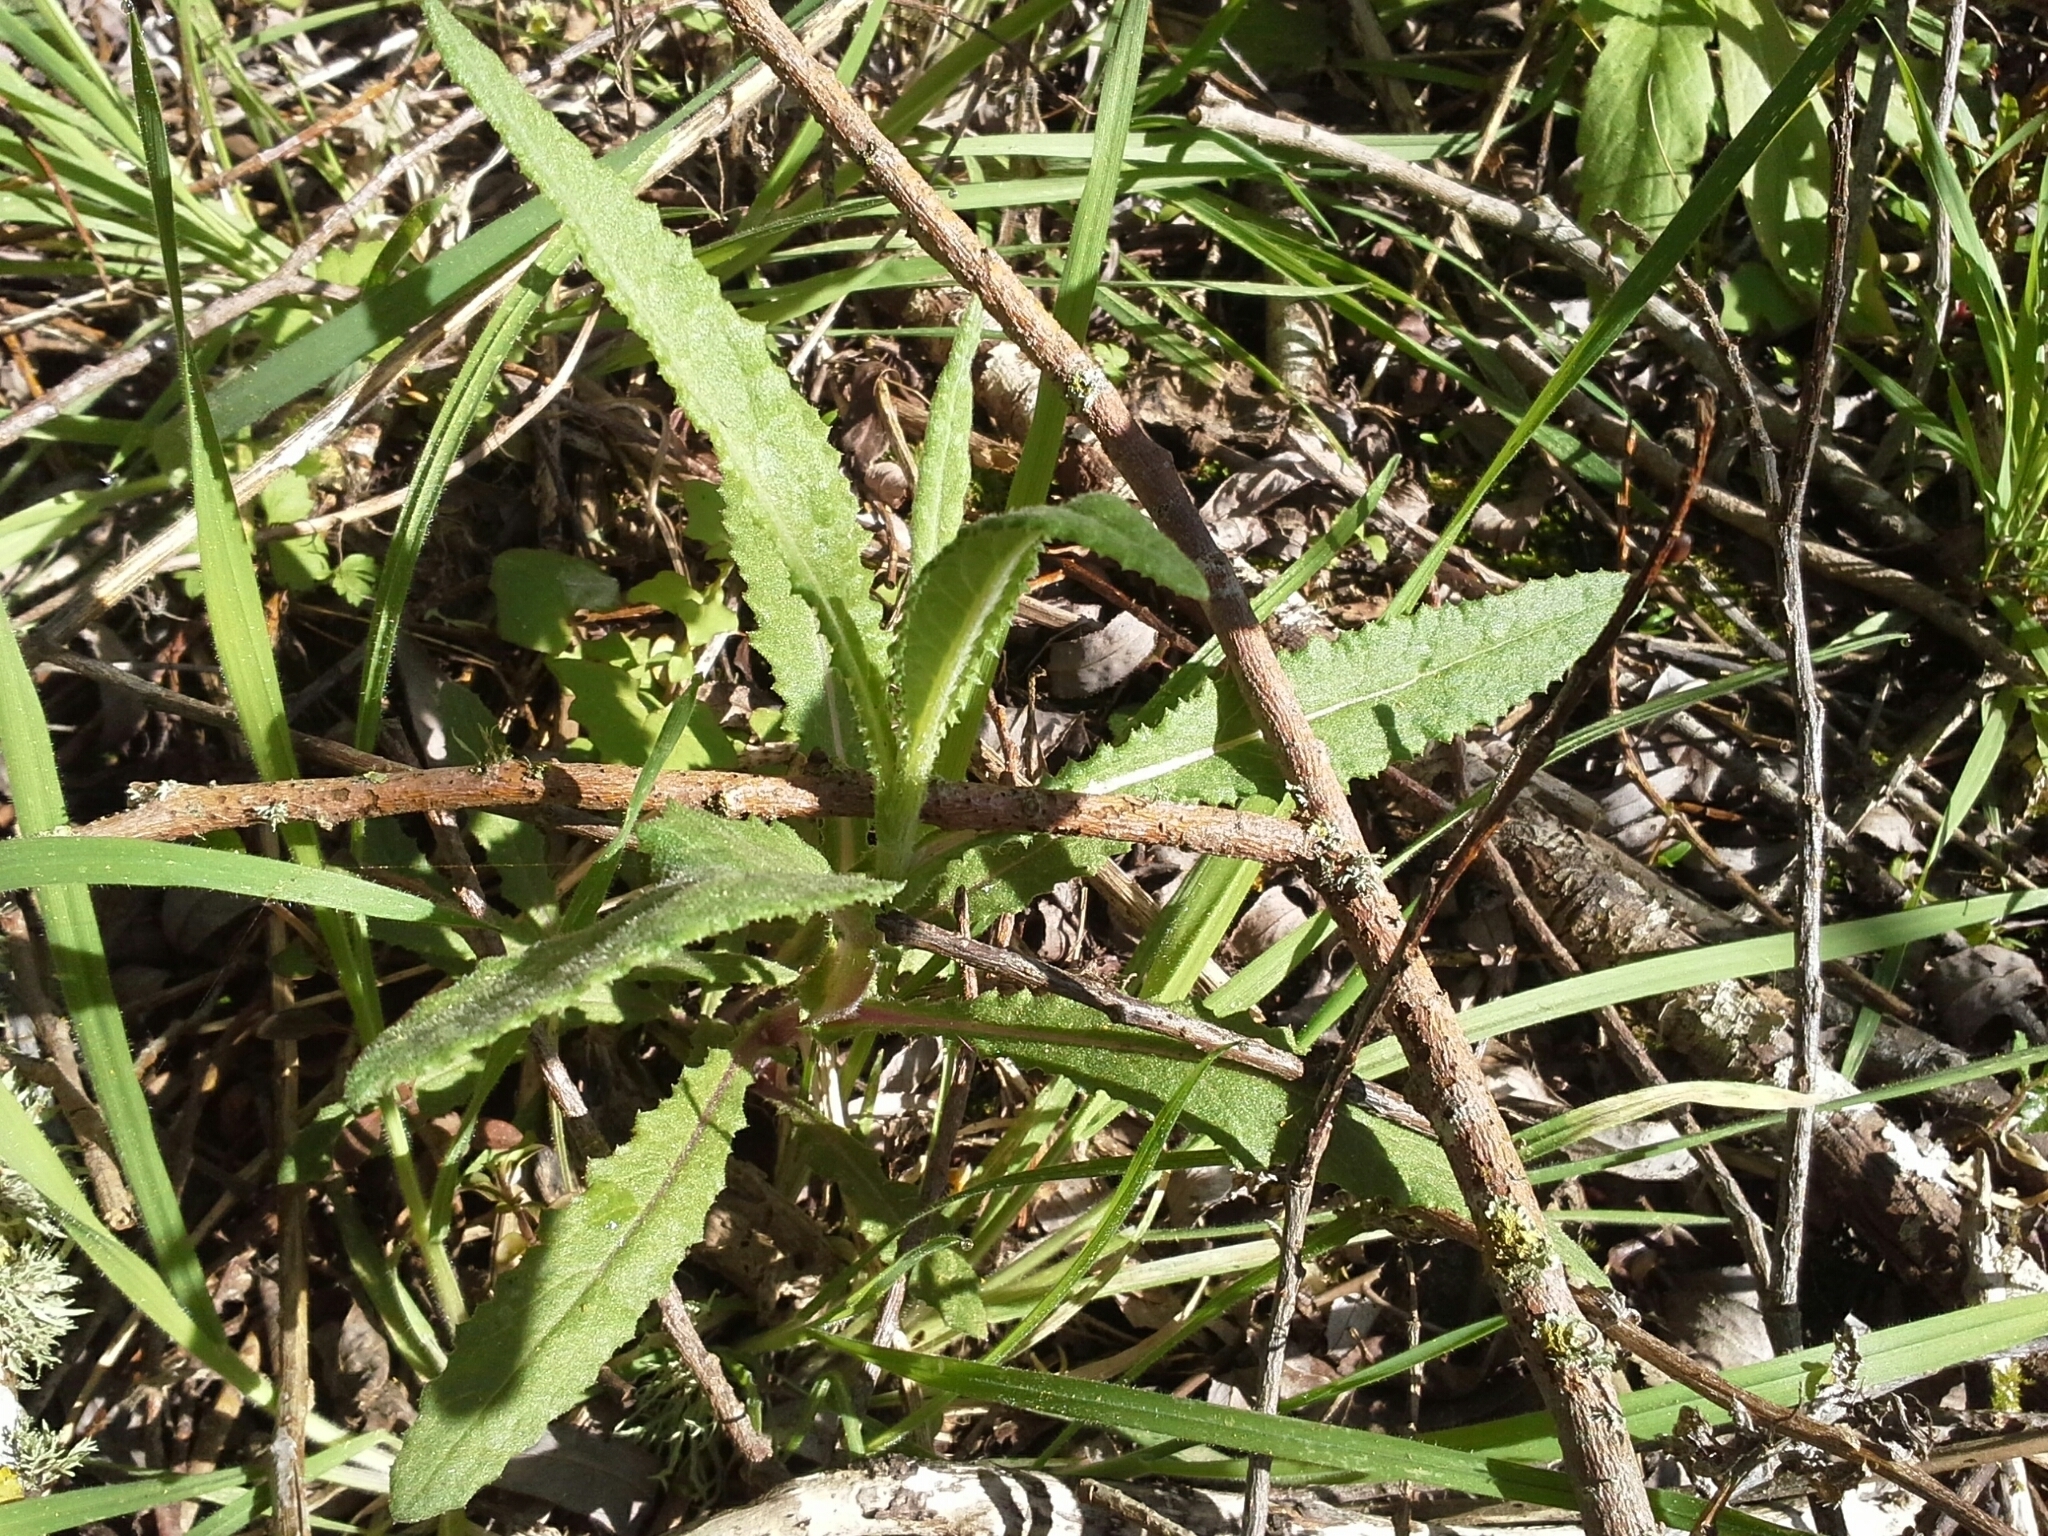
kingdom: Plantae
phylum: Tracheophyta
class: Magnoliopsida
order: Asterales
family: Asteraceae
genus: Senecio
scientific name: Senecio minimus
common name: Toothed fireweed
